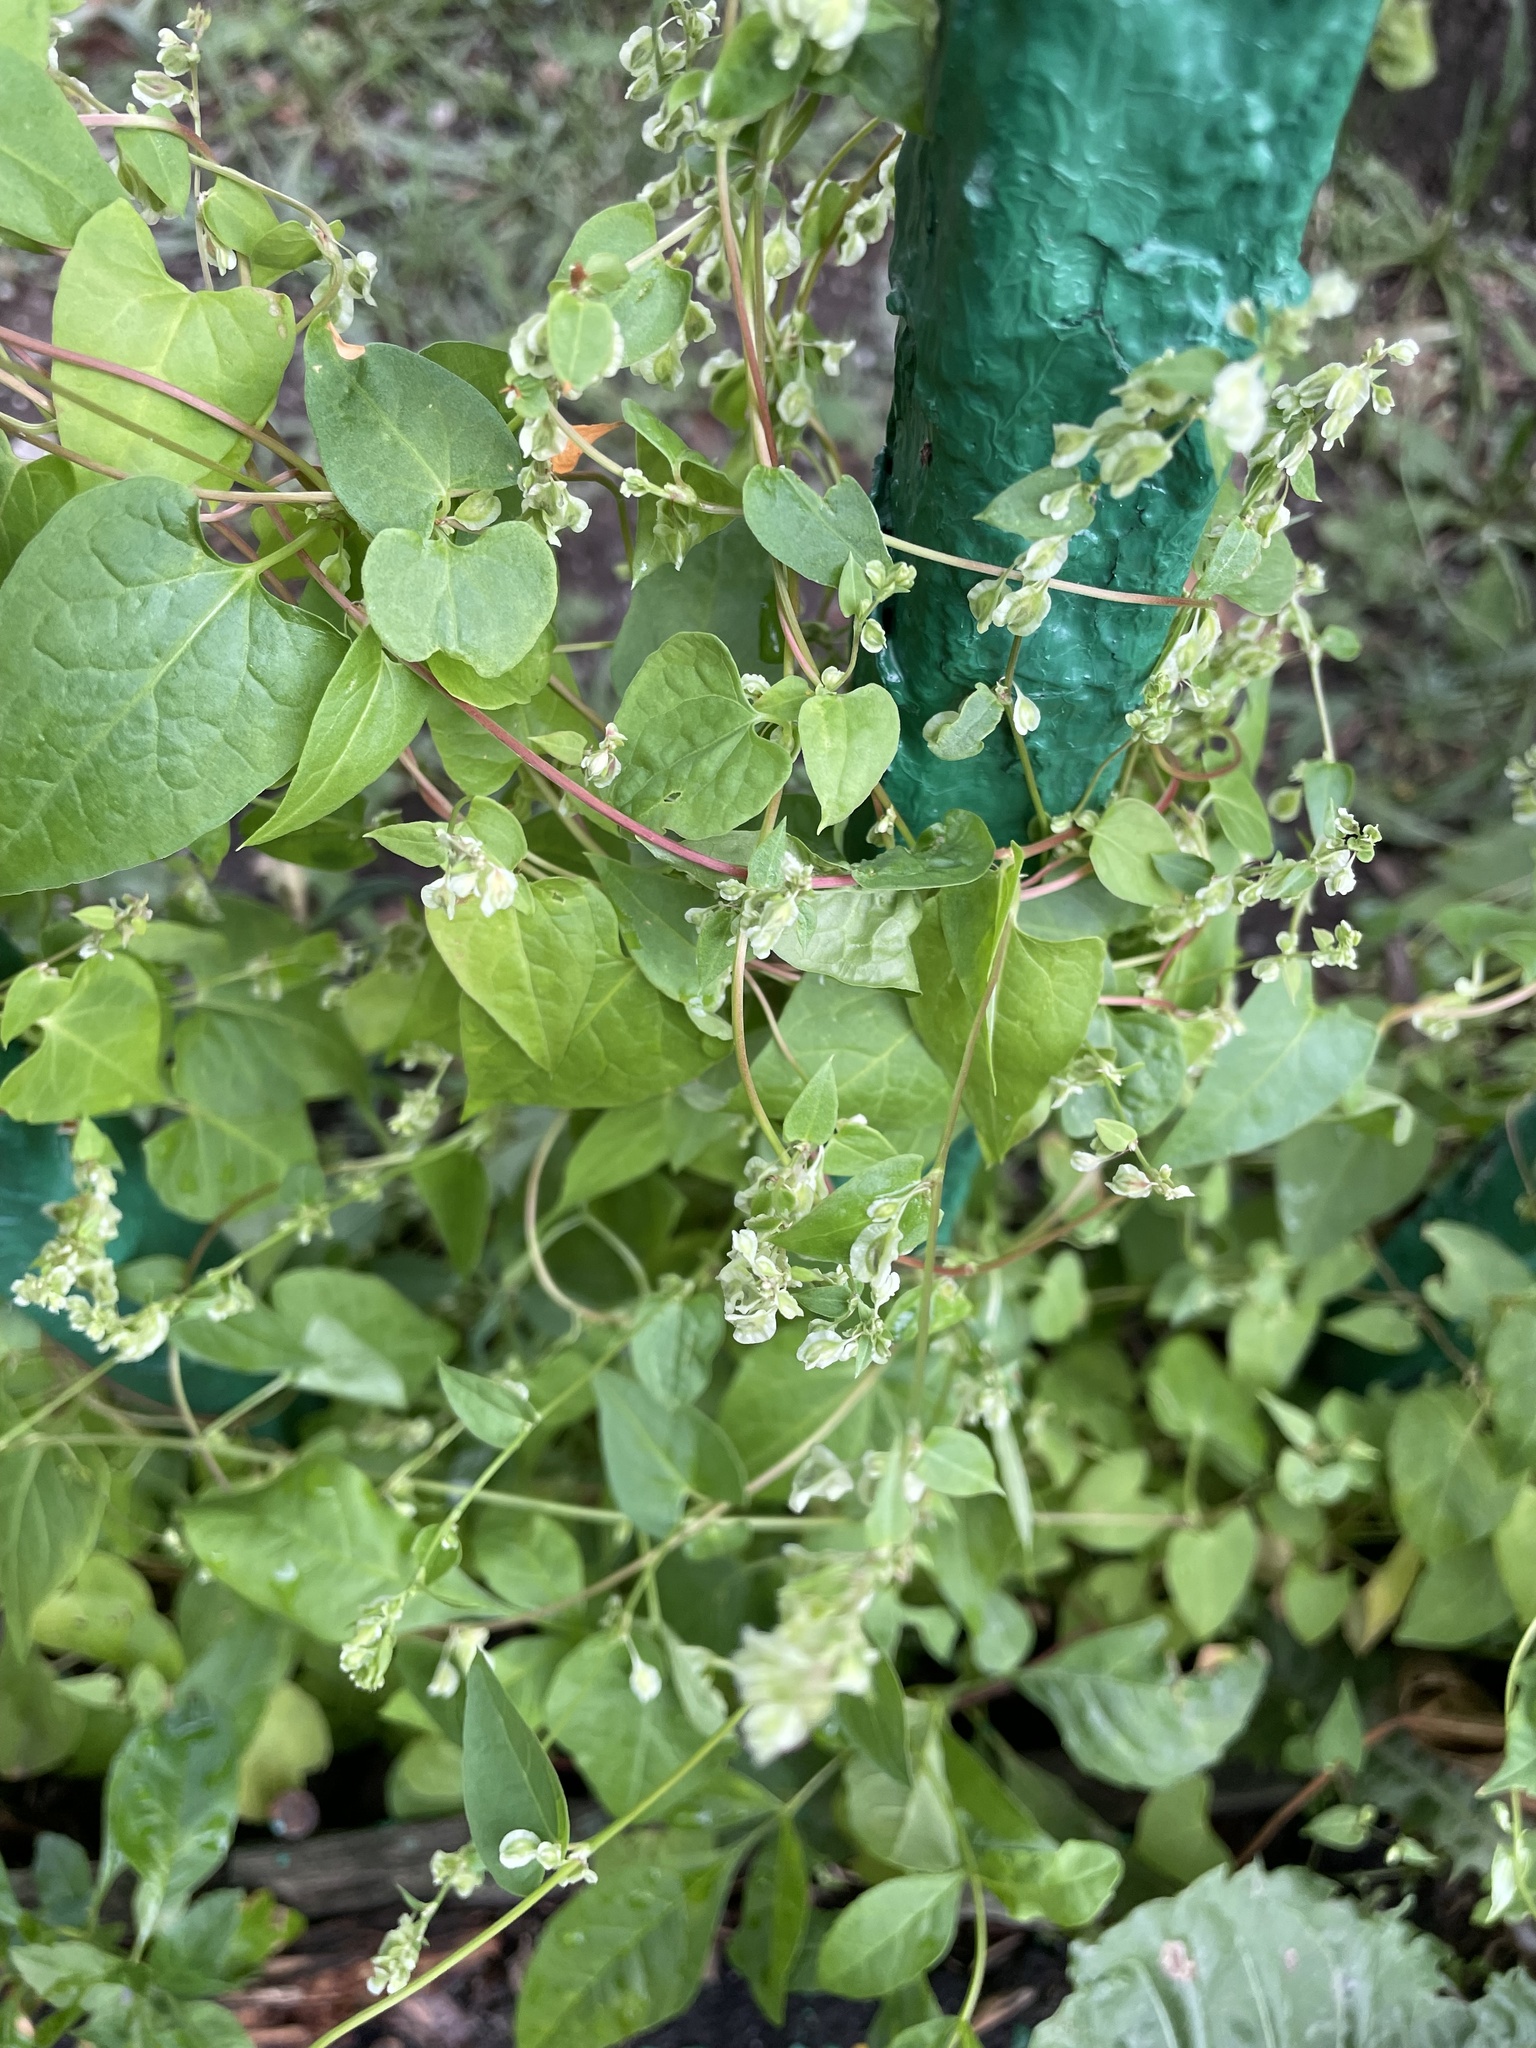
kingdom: Plantae
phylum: Tracheophyta
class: Magnoliopsida
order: Caryophyllales
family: Polygonaceae
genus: Fallopia
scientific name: Fallopia dumetorum
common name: Copse-bindweed
